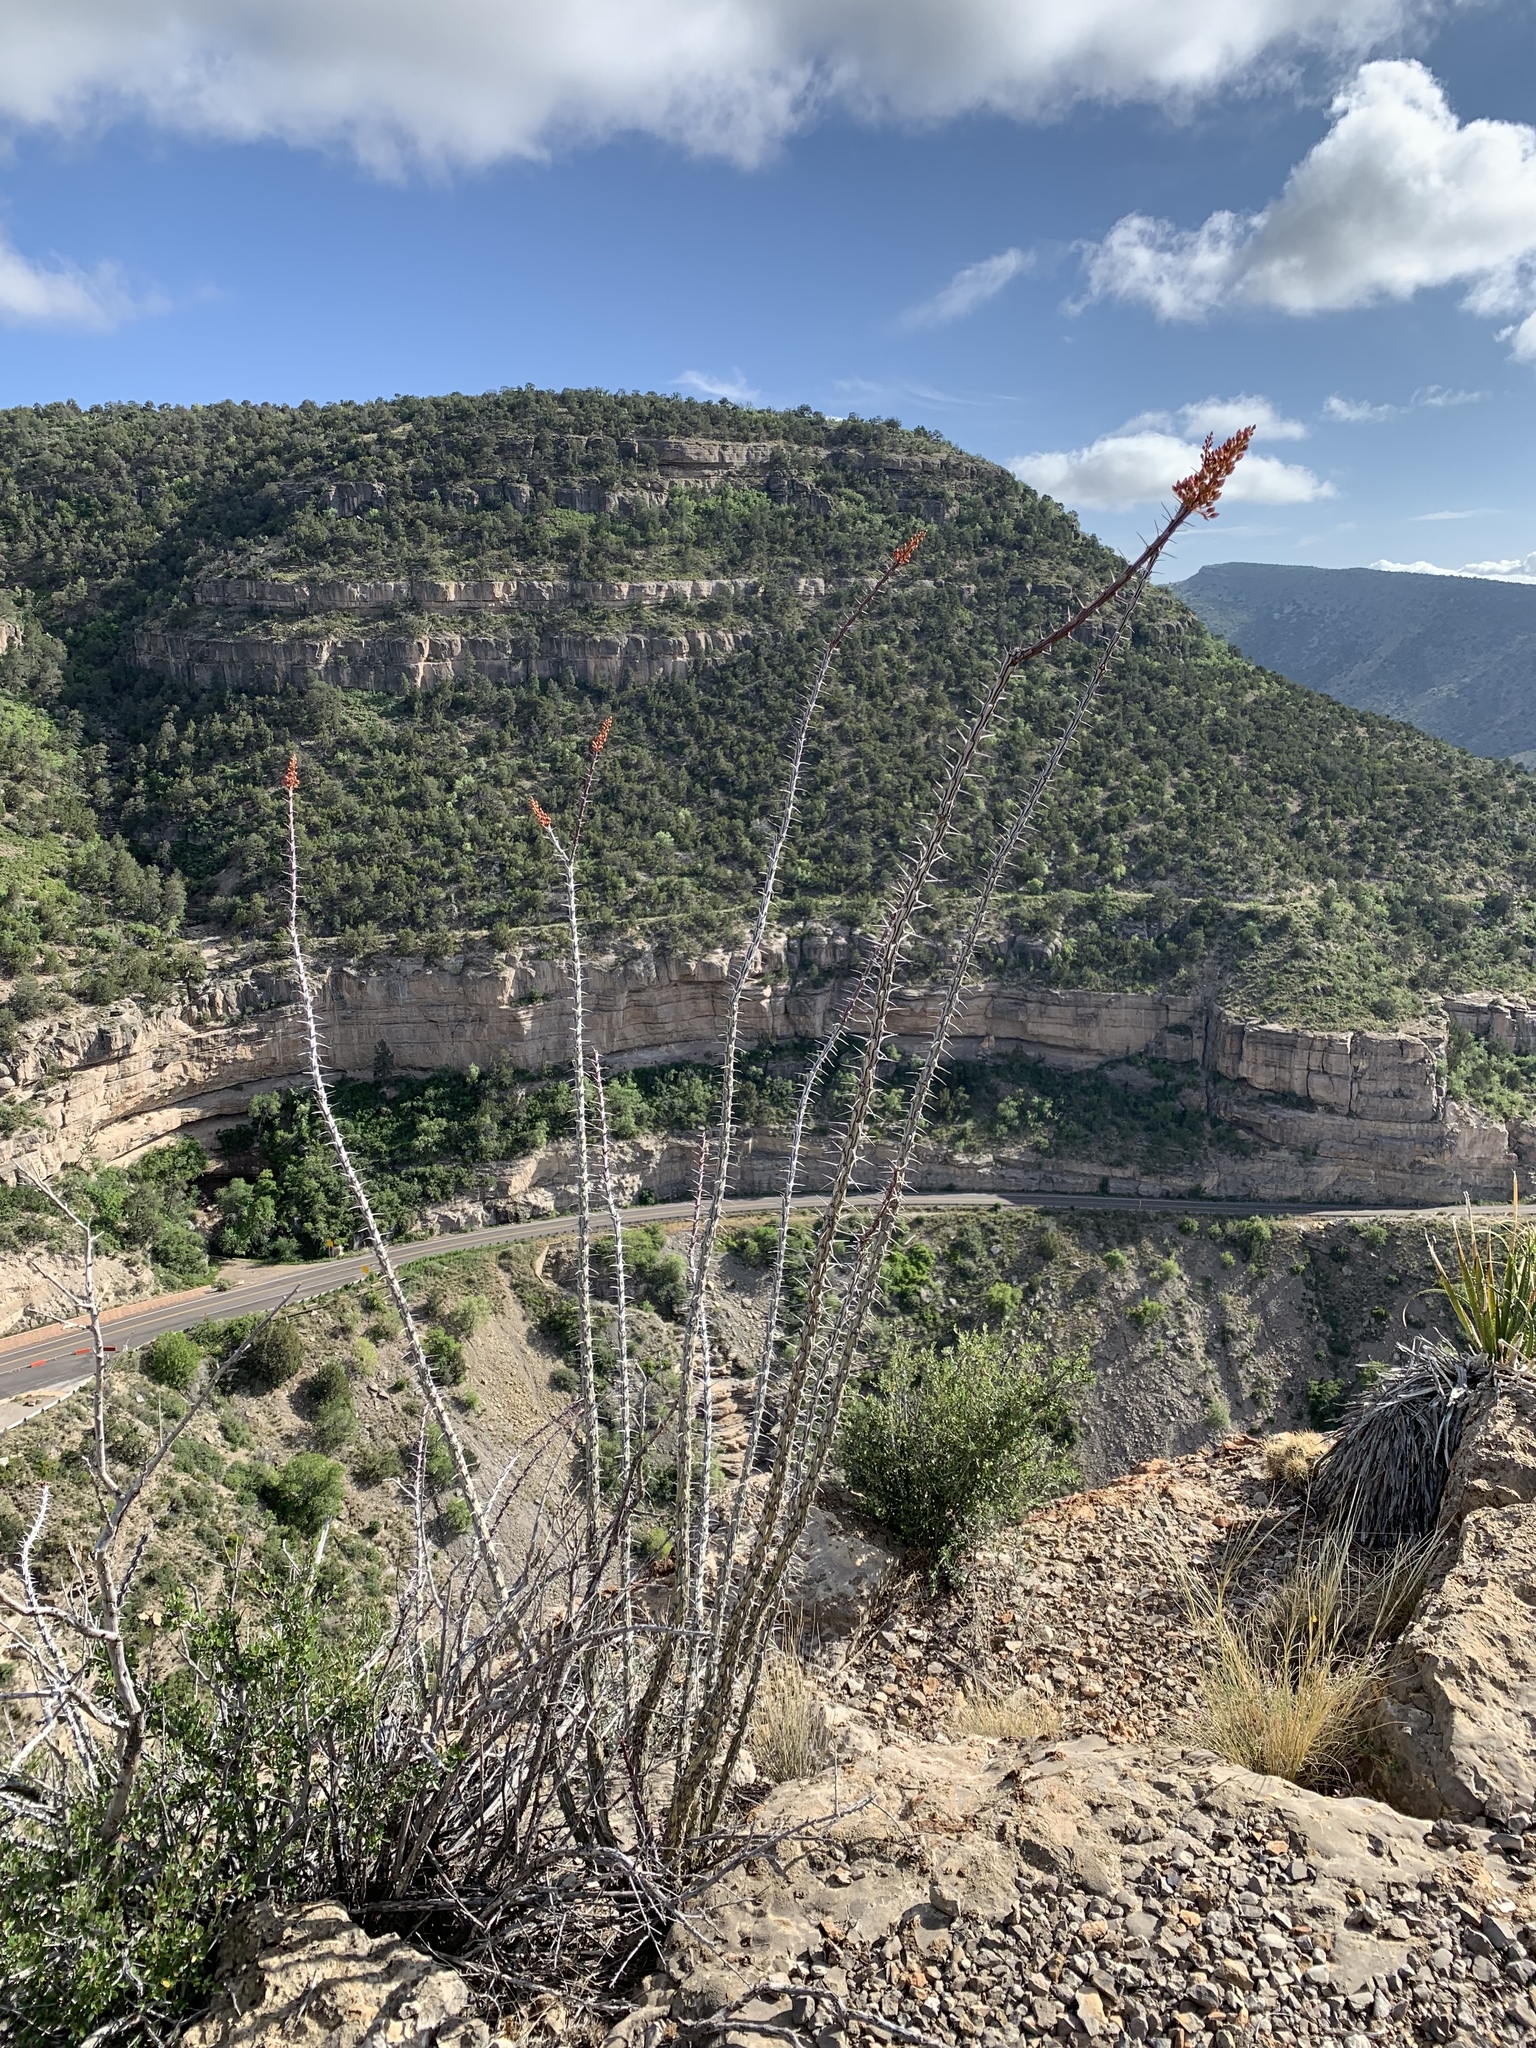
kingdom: Plantae
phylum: Tracheophyta
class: Magnoliopsida
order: Ericales
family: Fouquieriaceae
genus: Fouquieria
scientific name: Fouquieria splendens
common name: Vine-cactus
